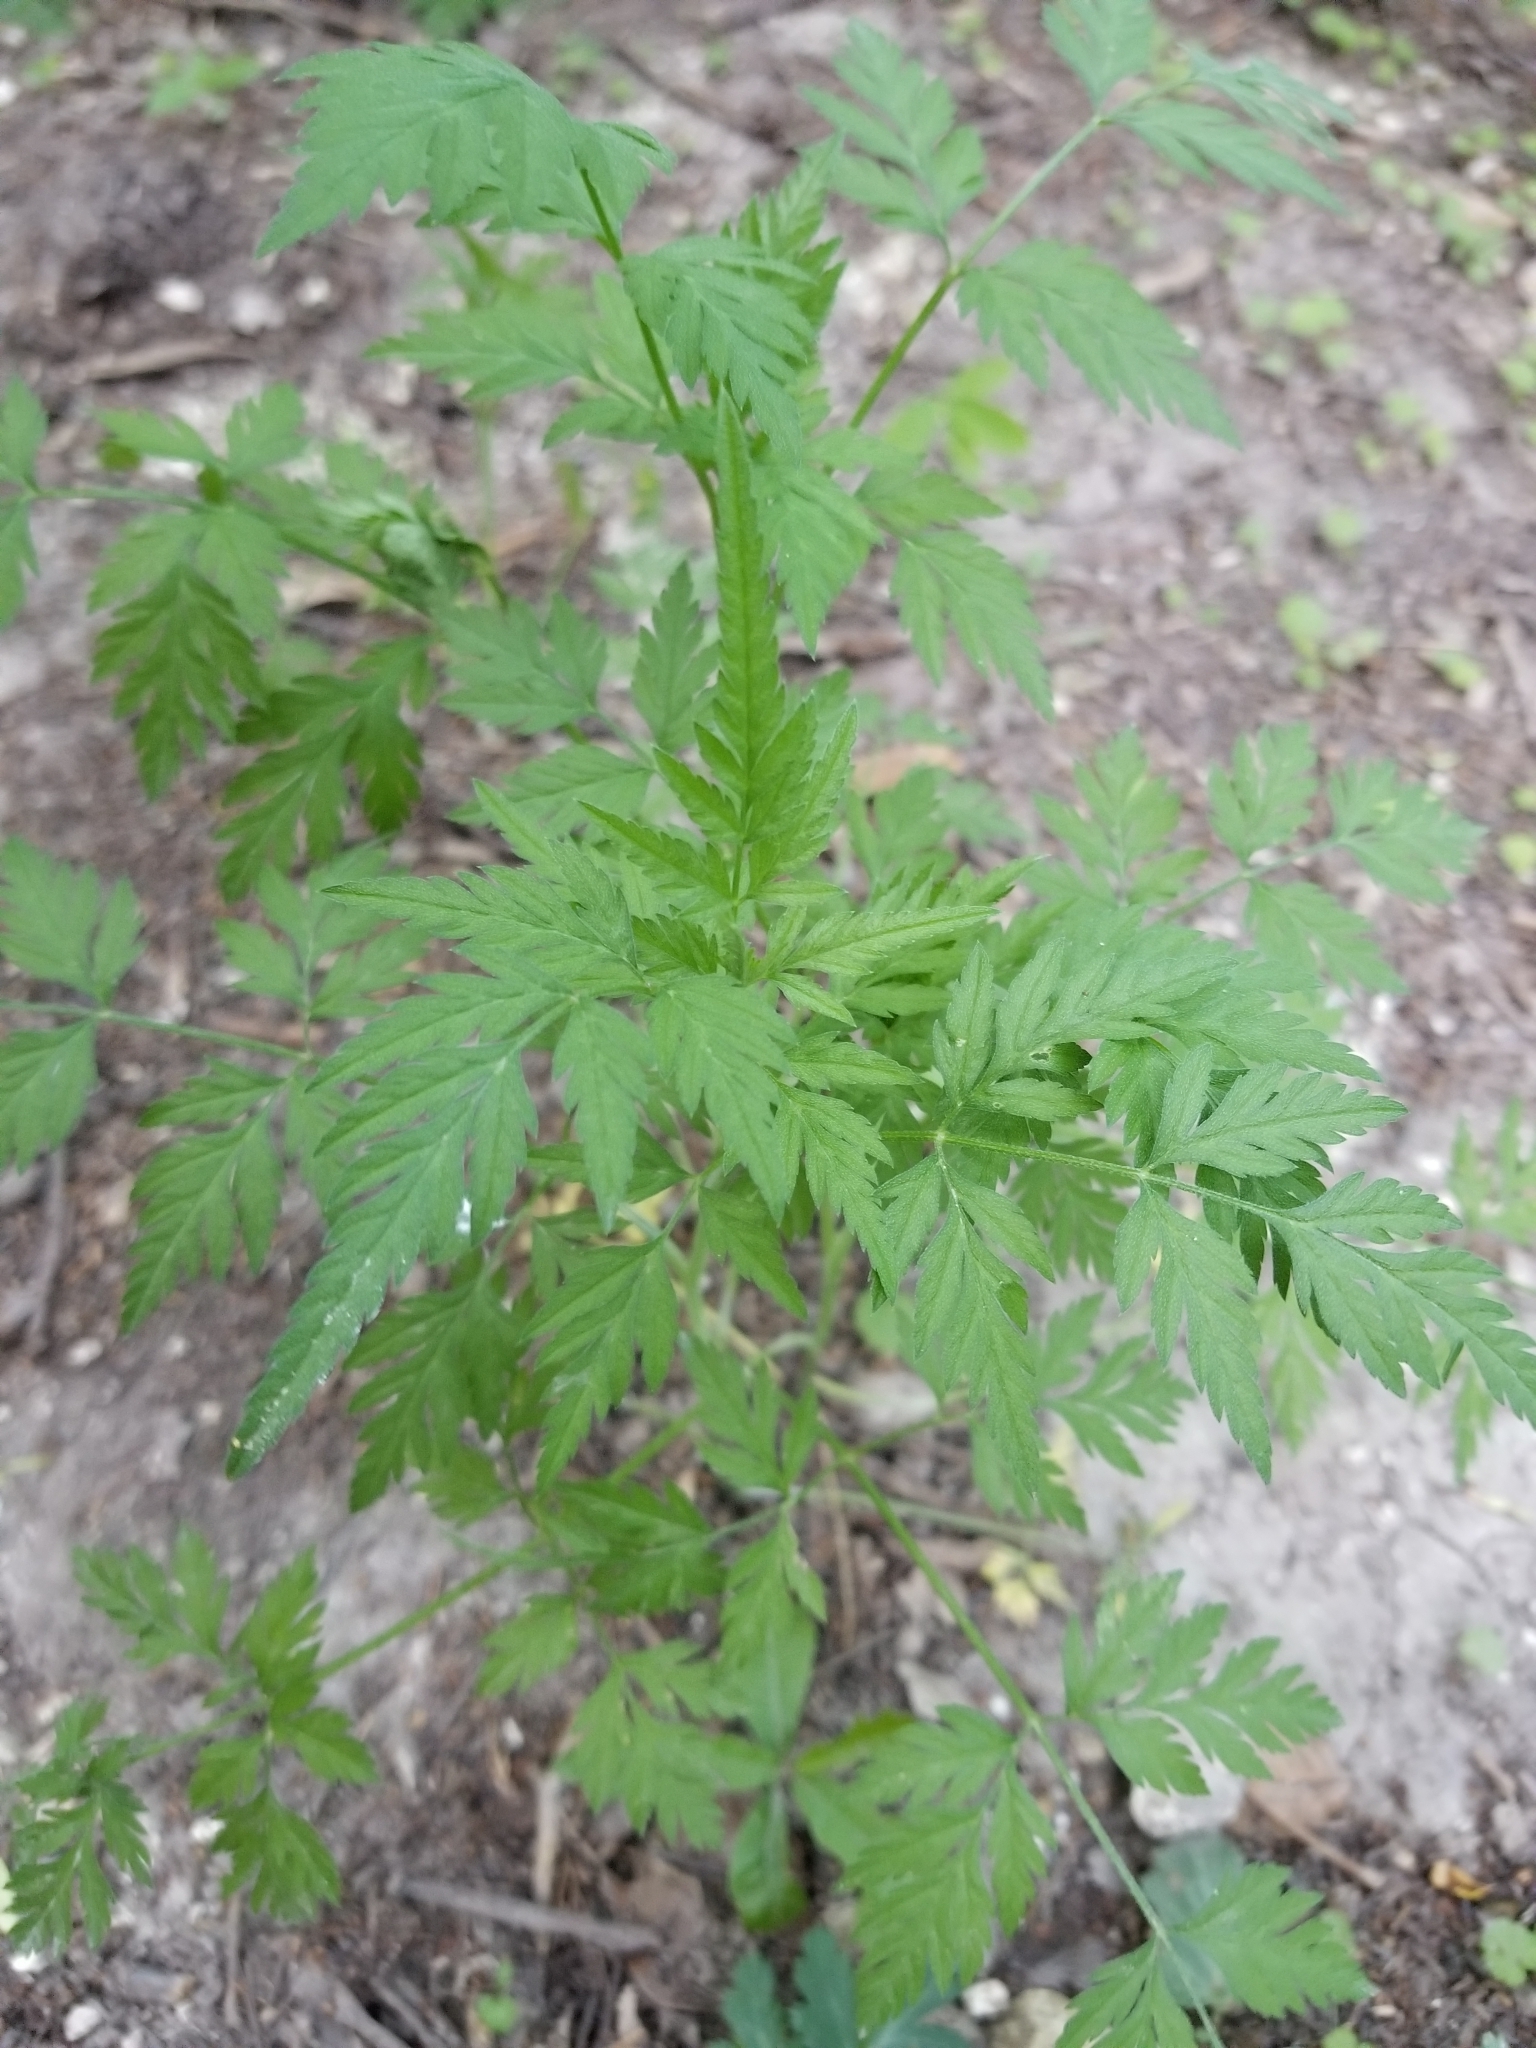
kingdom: Plantae
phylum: Tracheophyta
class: Magnoliopsida
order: Apiales
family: Apiaceae
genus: Torilis
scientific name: Torilis arvensis
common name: Spreading hedge-parsley
